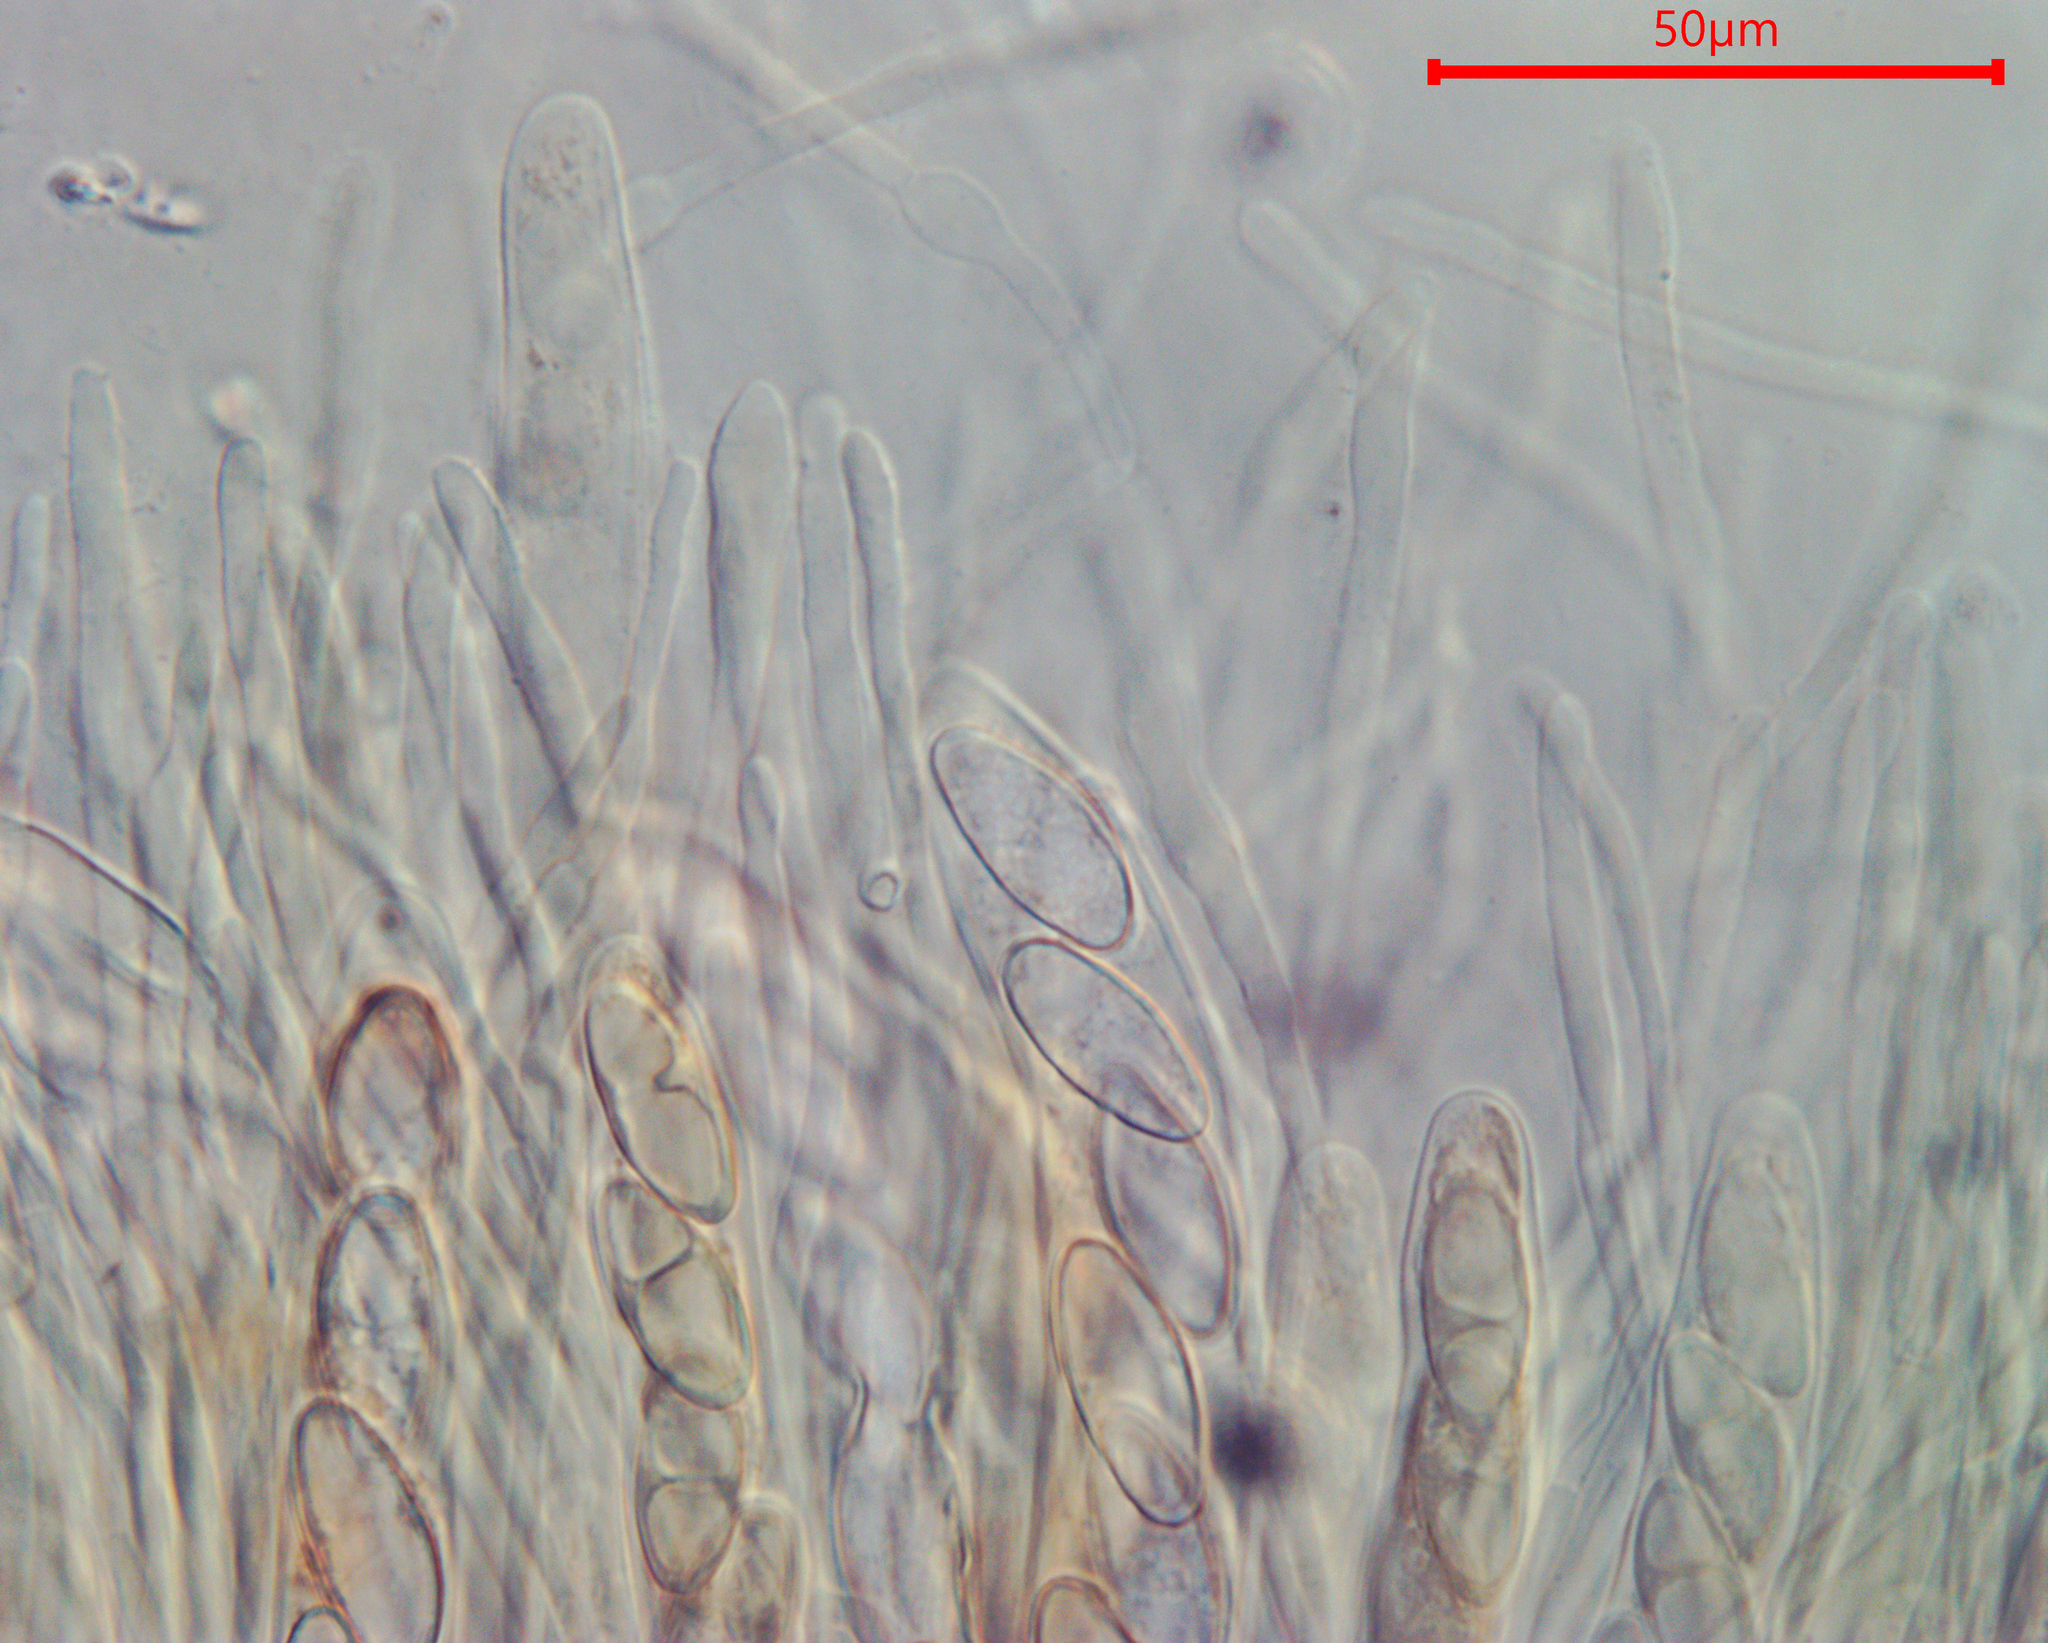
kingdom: Fungi
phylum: Ascomycota
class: Pezizomycetes
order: Pezizales
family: Pyronemataceae
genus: Geopora
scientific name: Geopora semi-immersa
